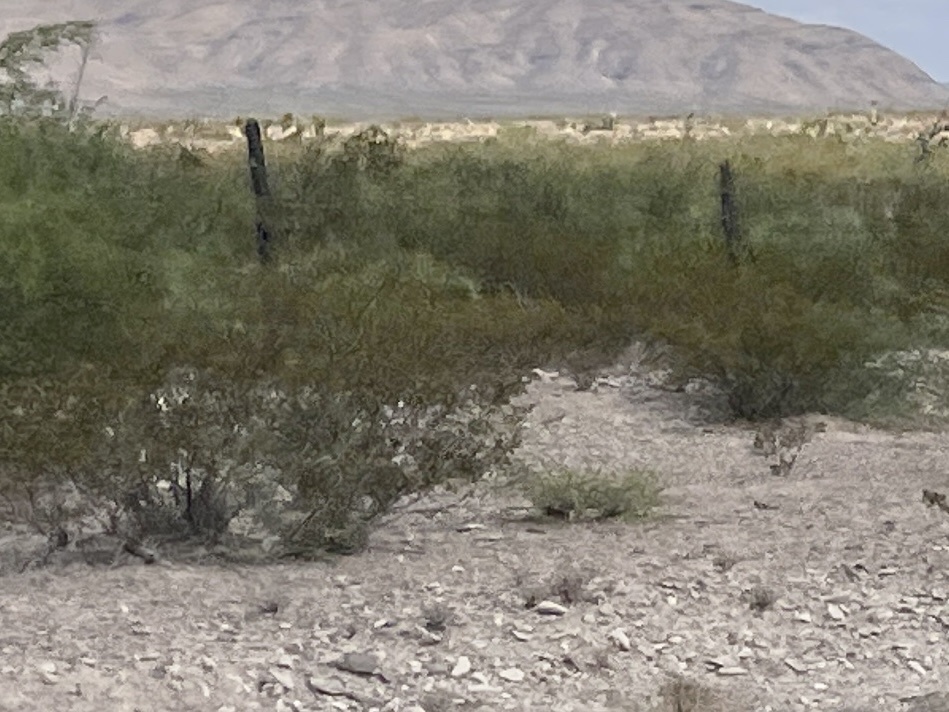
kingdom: Plantae
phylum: Tracheophyta
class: Magnoliopsida
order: Zygophyllales
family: Zygophyllaceae
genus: Larrea
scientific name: Larrea tridentata
